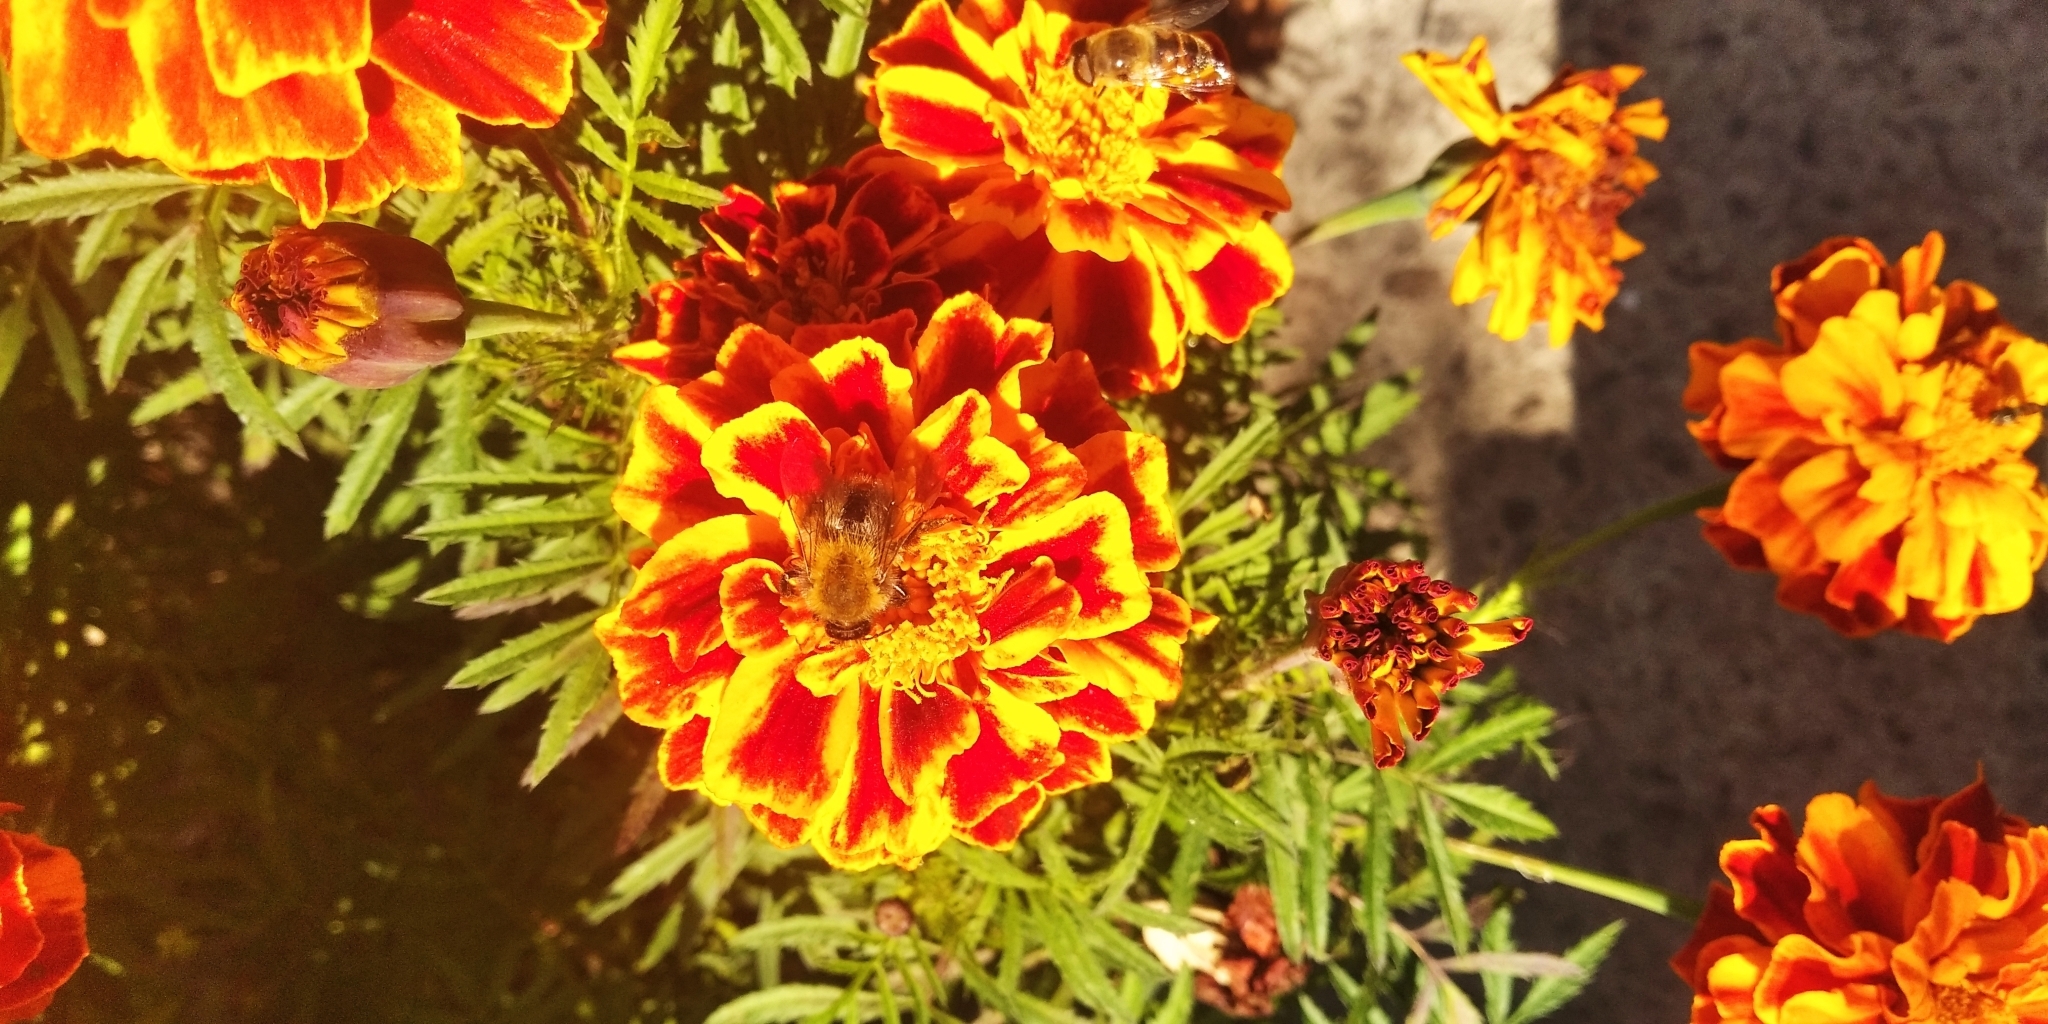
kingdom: Animalia
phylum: Arthropoda
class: Insecta
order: Hymenoptera
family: Apidae
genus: Bombus
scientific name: Bombus pascuorum
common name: Common carder bee
